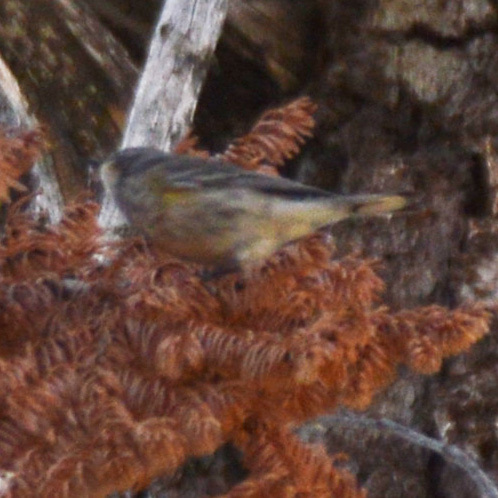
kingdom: Animalia
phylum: Chordata
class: Aves
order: Passeriformes
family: Parulidae
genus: Setophaga
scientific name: Setophaga coronata
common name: Myrtle warbler
